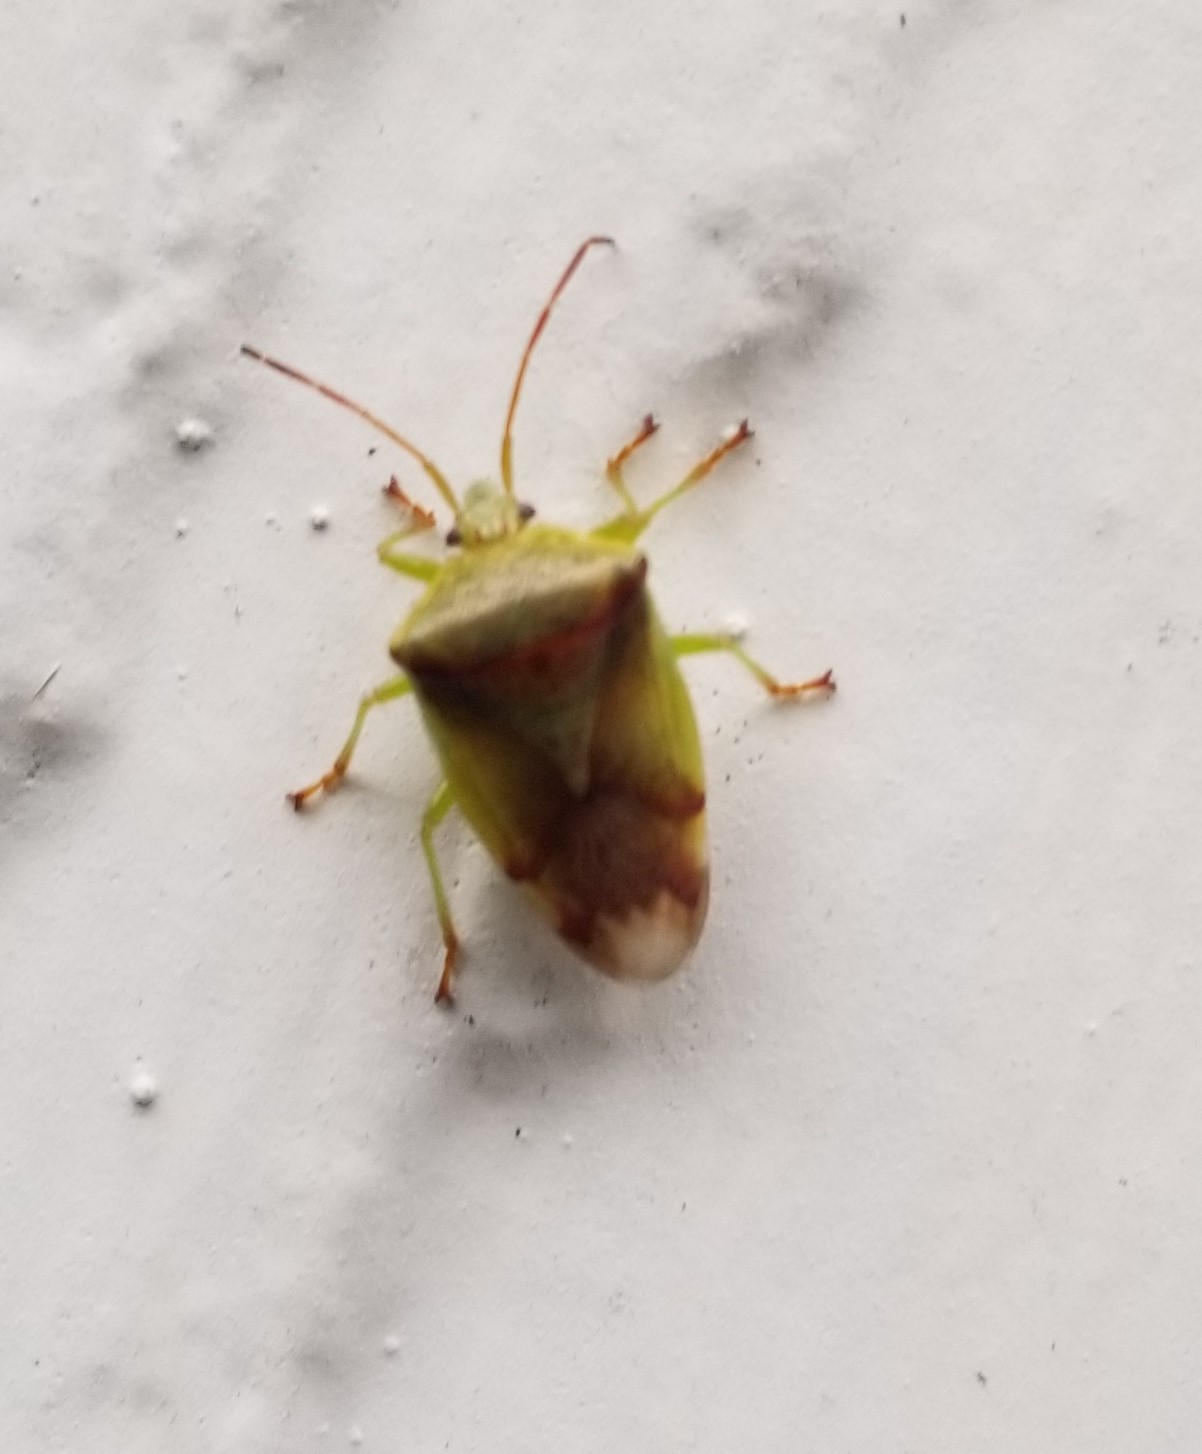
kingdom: Animalia
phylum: Arthropoda
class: Insecta
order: Hemiptera
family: Acanthosomatidae
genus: Elasmostethus
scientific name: Elasmostethus cruciatus
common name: Red-cross shield bug
